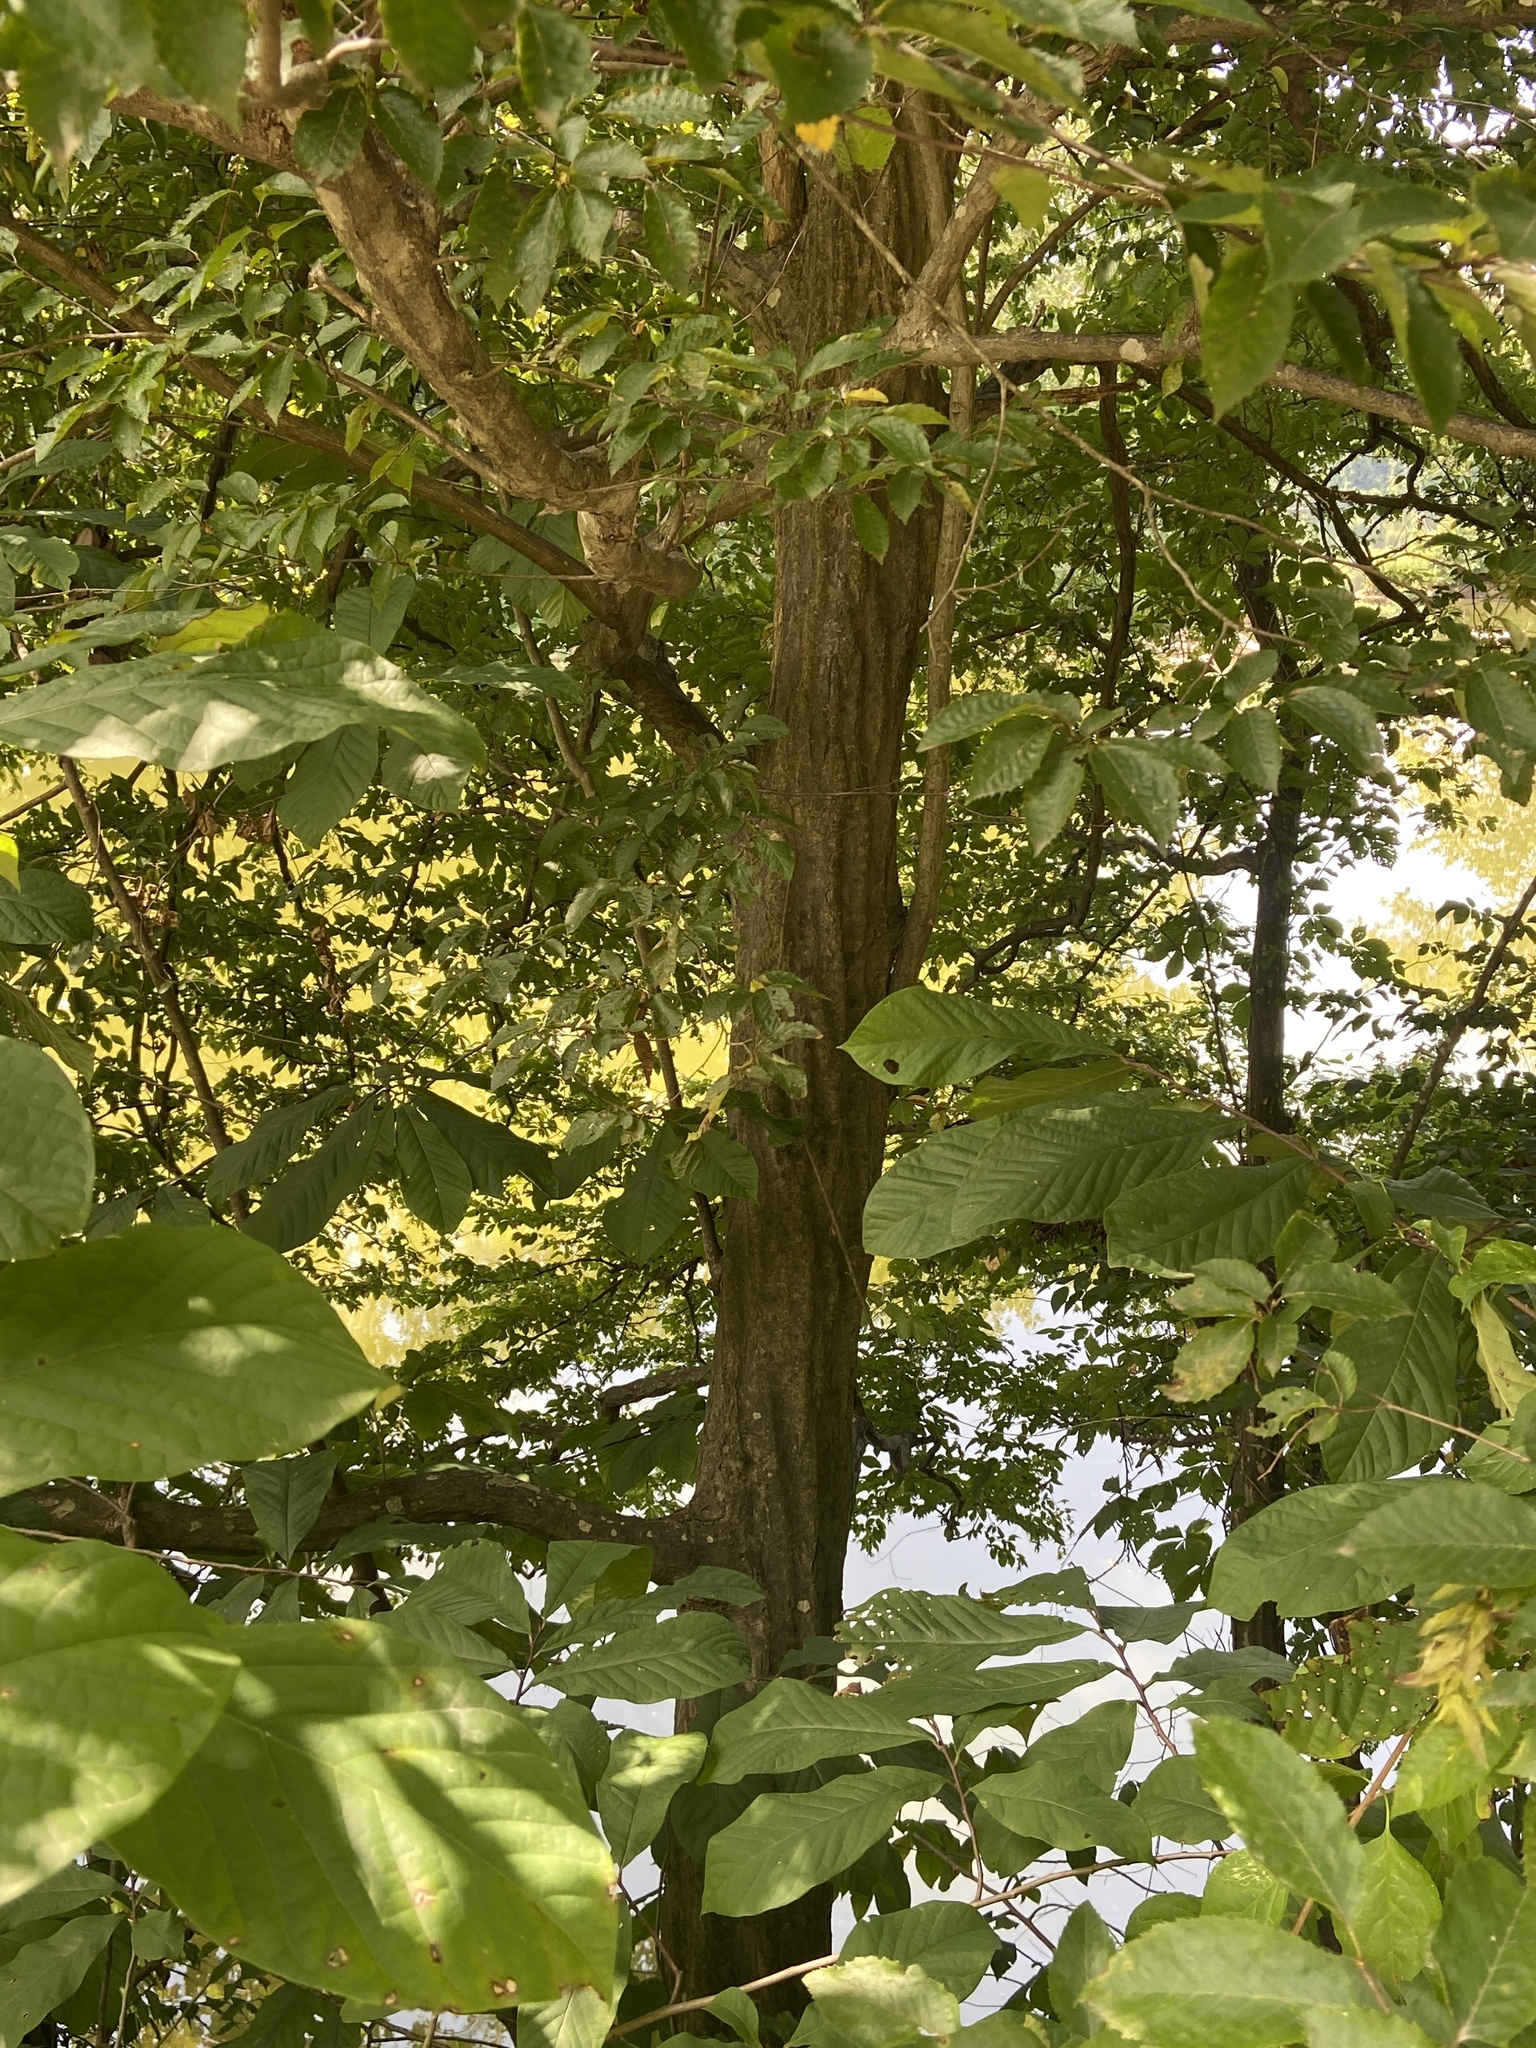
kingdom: Plantae
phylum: Tracheophyta
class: Magnoliopsida
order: Fagales
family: Betulaceae
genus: Carpinus
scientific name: Carpinus caroliniana
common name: American hornbeam
